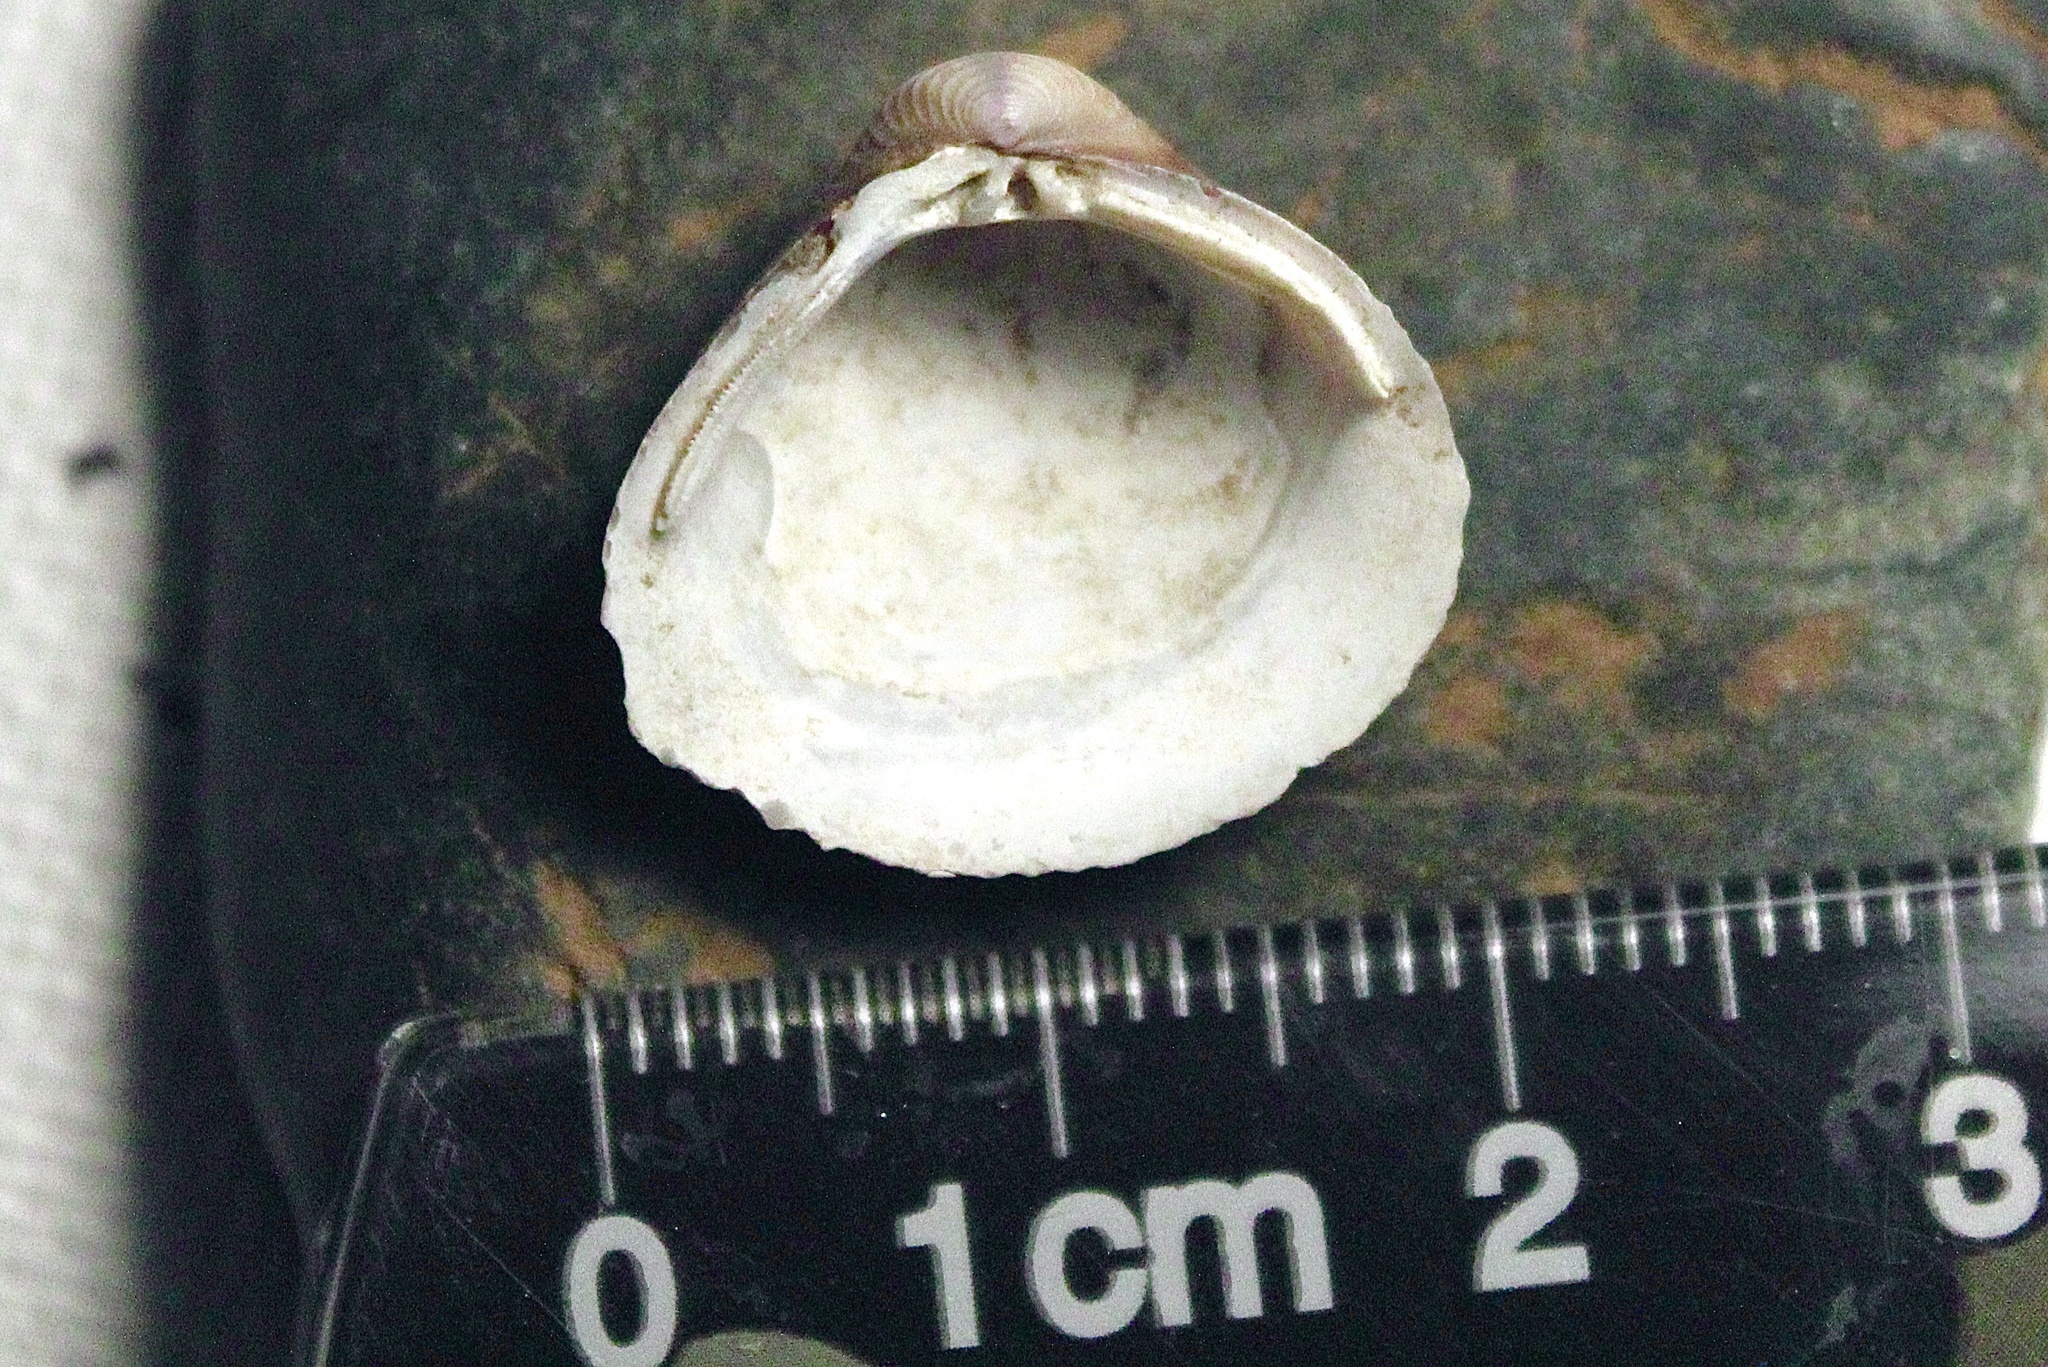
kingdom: Animalia
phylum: Mollusca
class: Bivalvia
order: Venerida
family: Cyrenidae
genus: Corbicula
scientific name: Corbicula fluminea
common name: Asian clam
